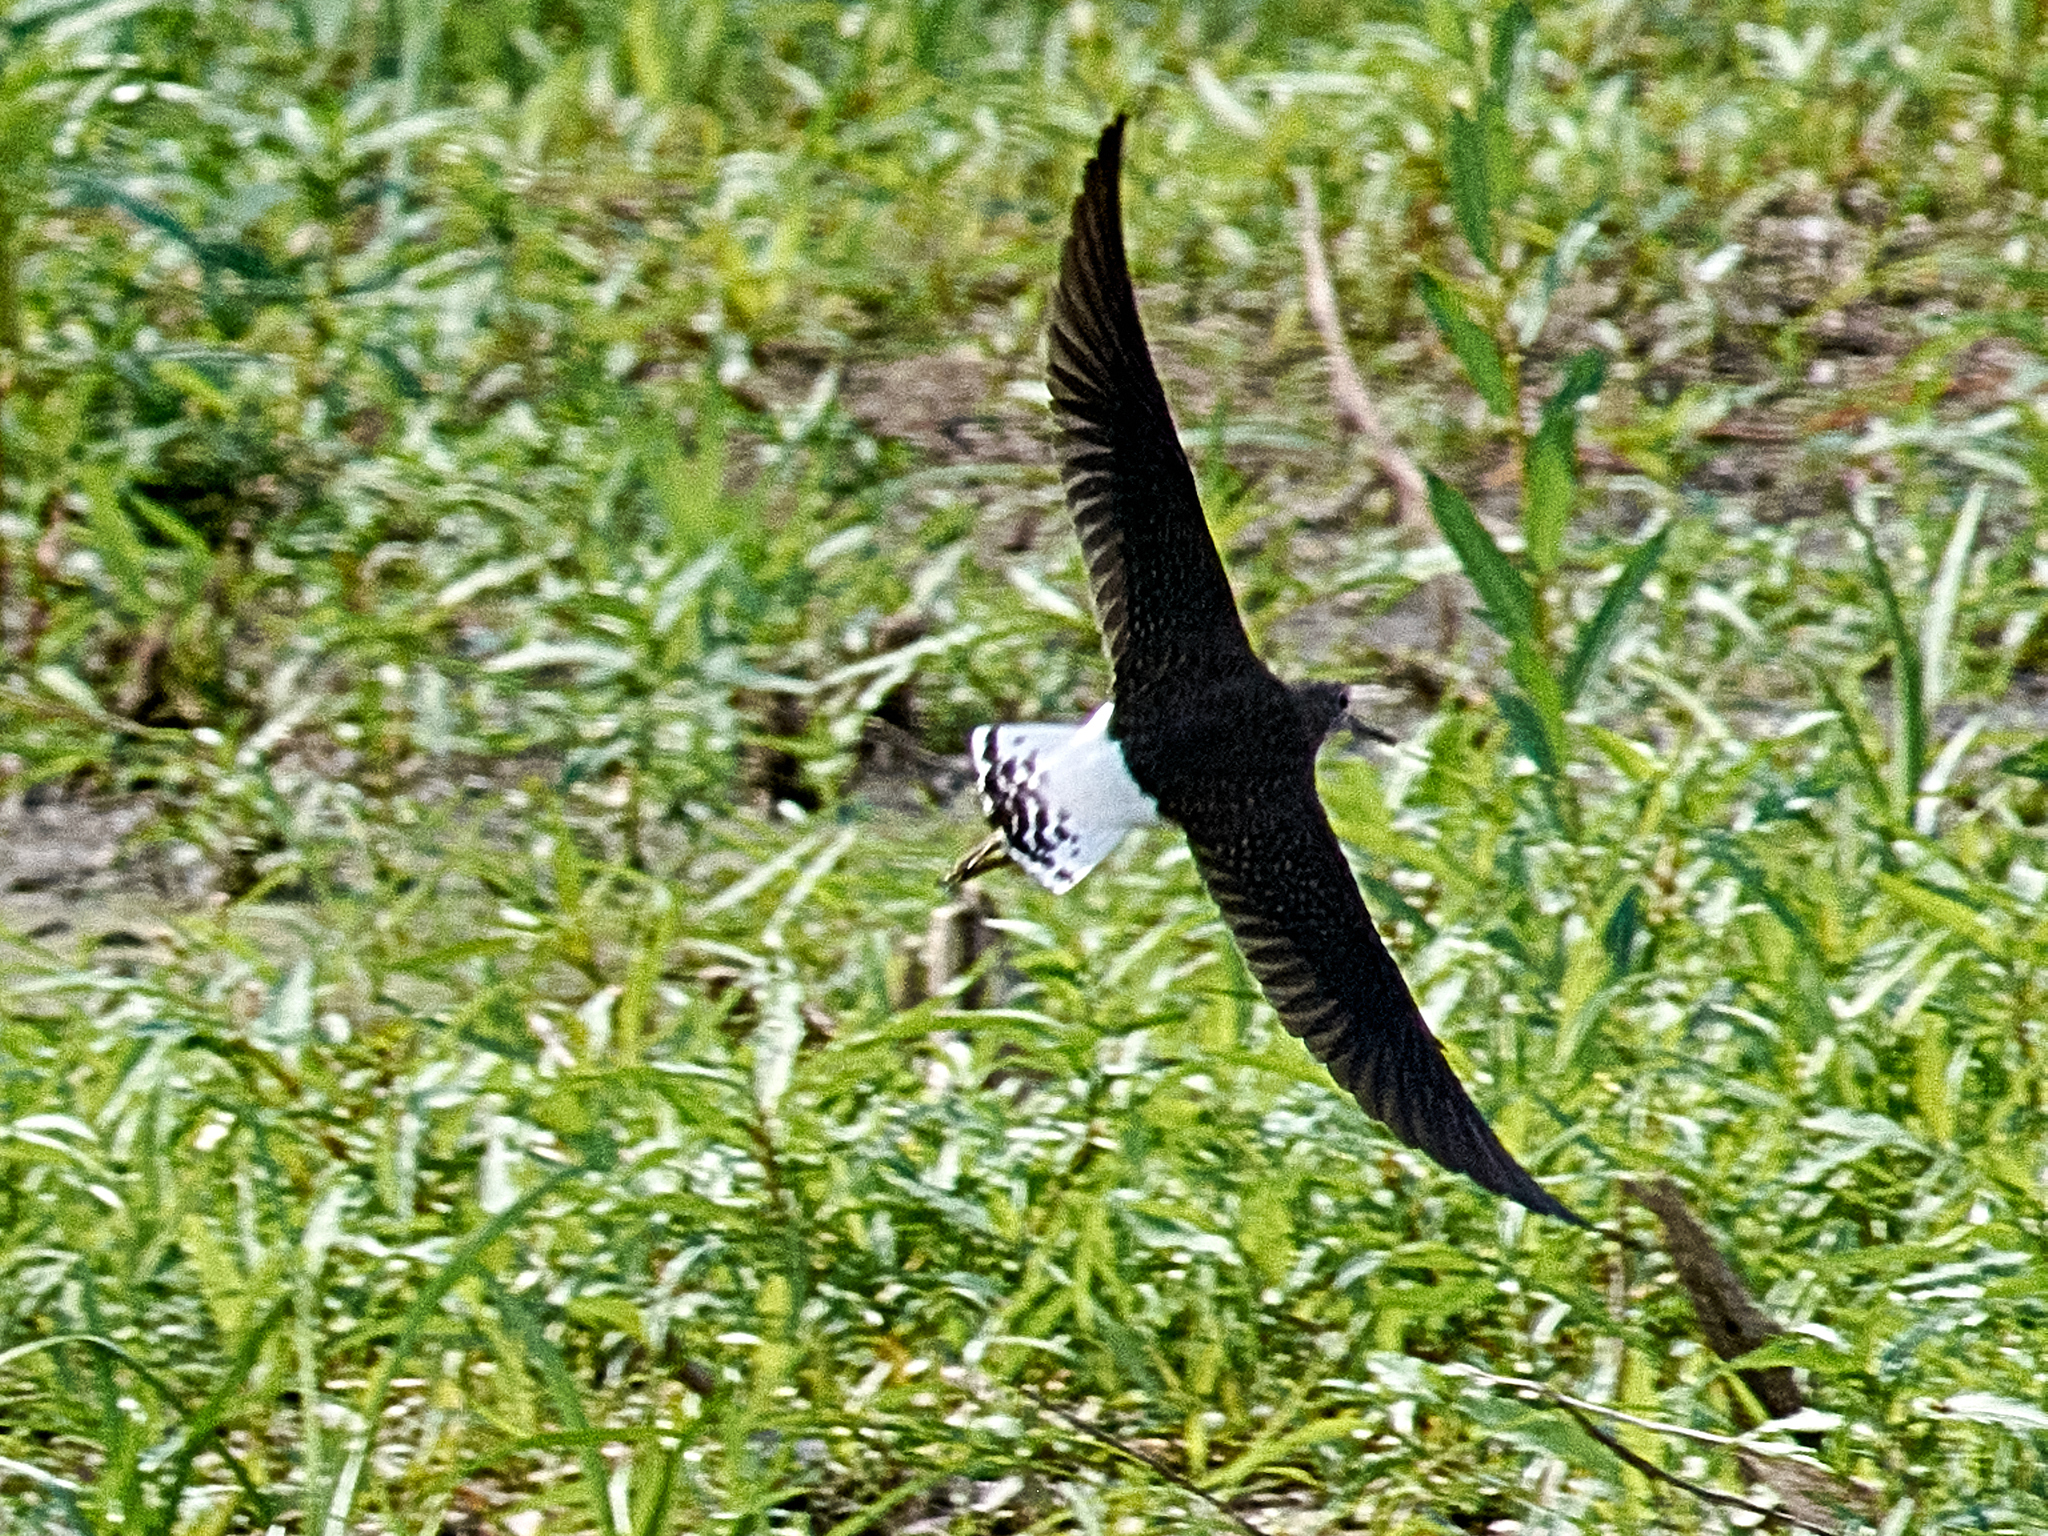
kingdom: Animalia
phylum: Chordata
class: Aves
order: Charadriiformes
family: Scolopacidae
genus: Tringa
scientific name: Tringa ochropus
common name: Green sandpiper
